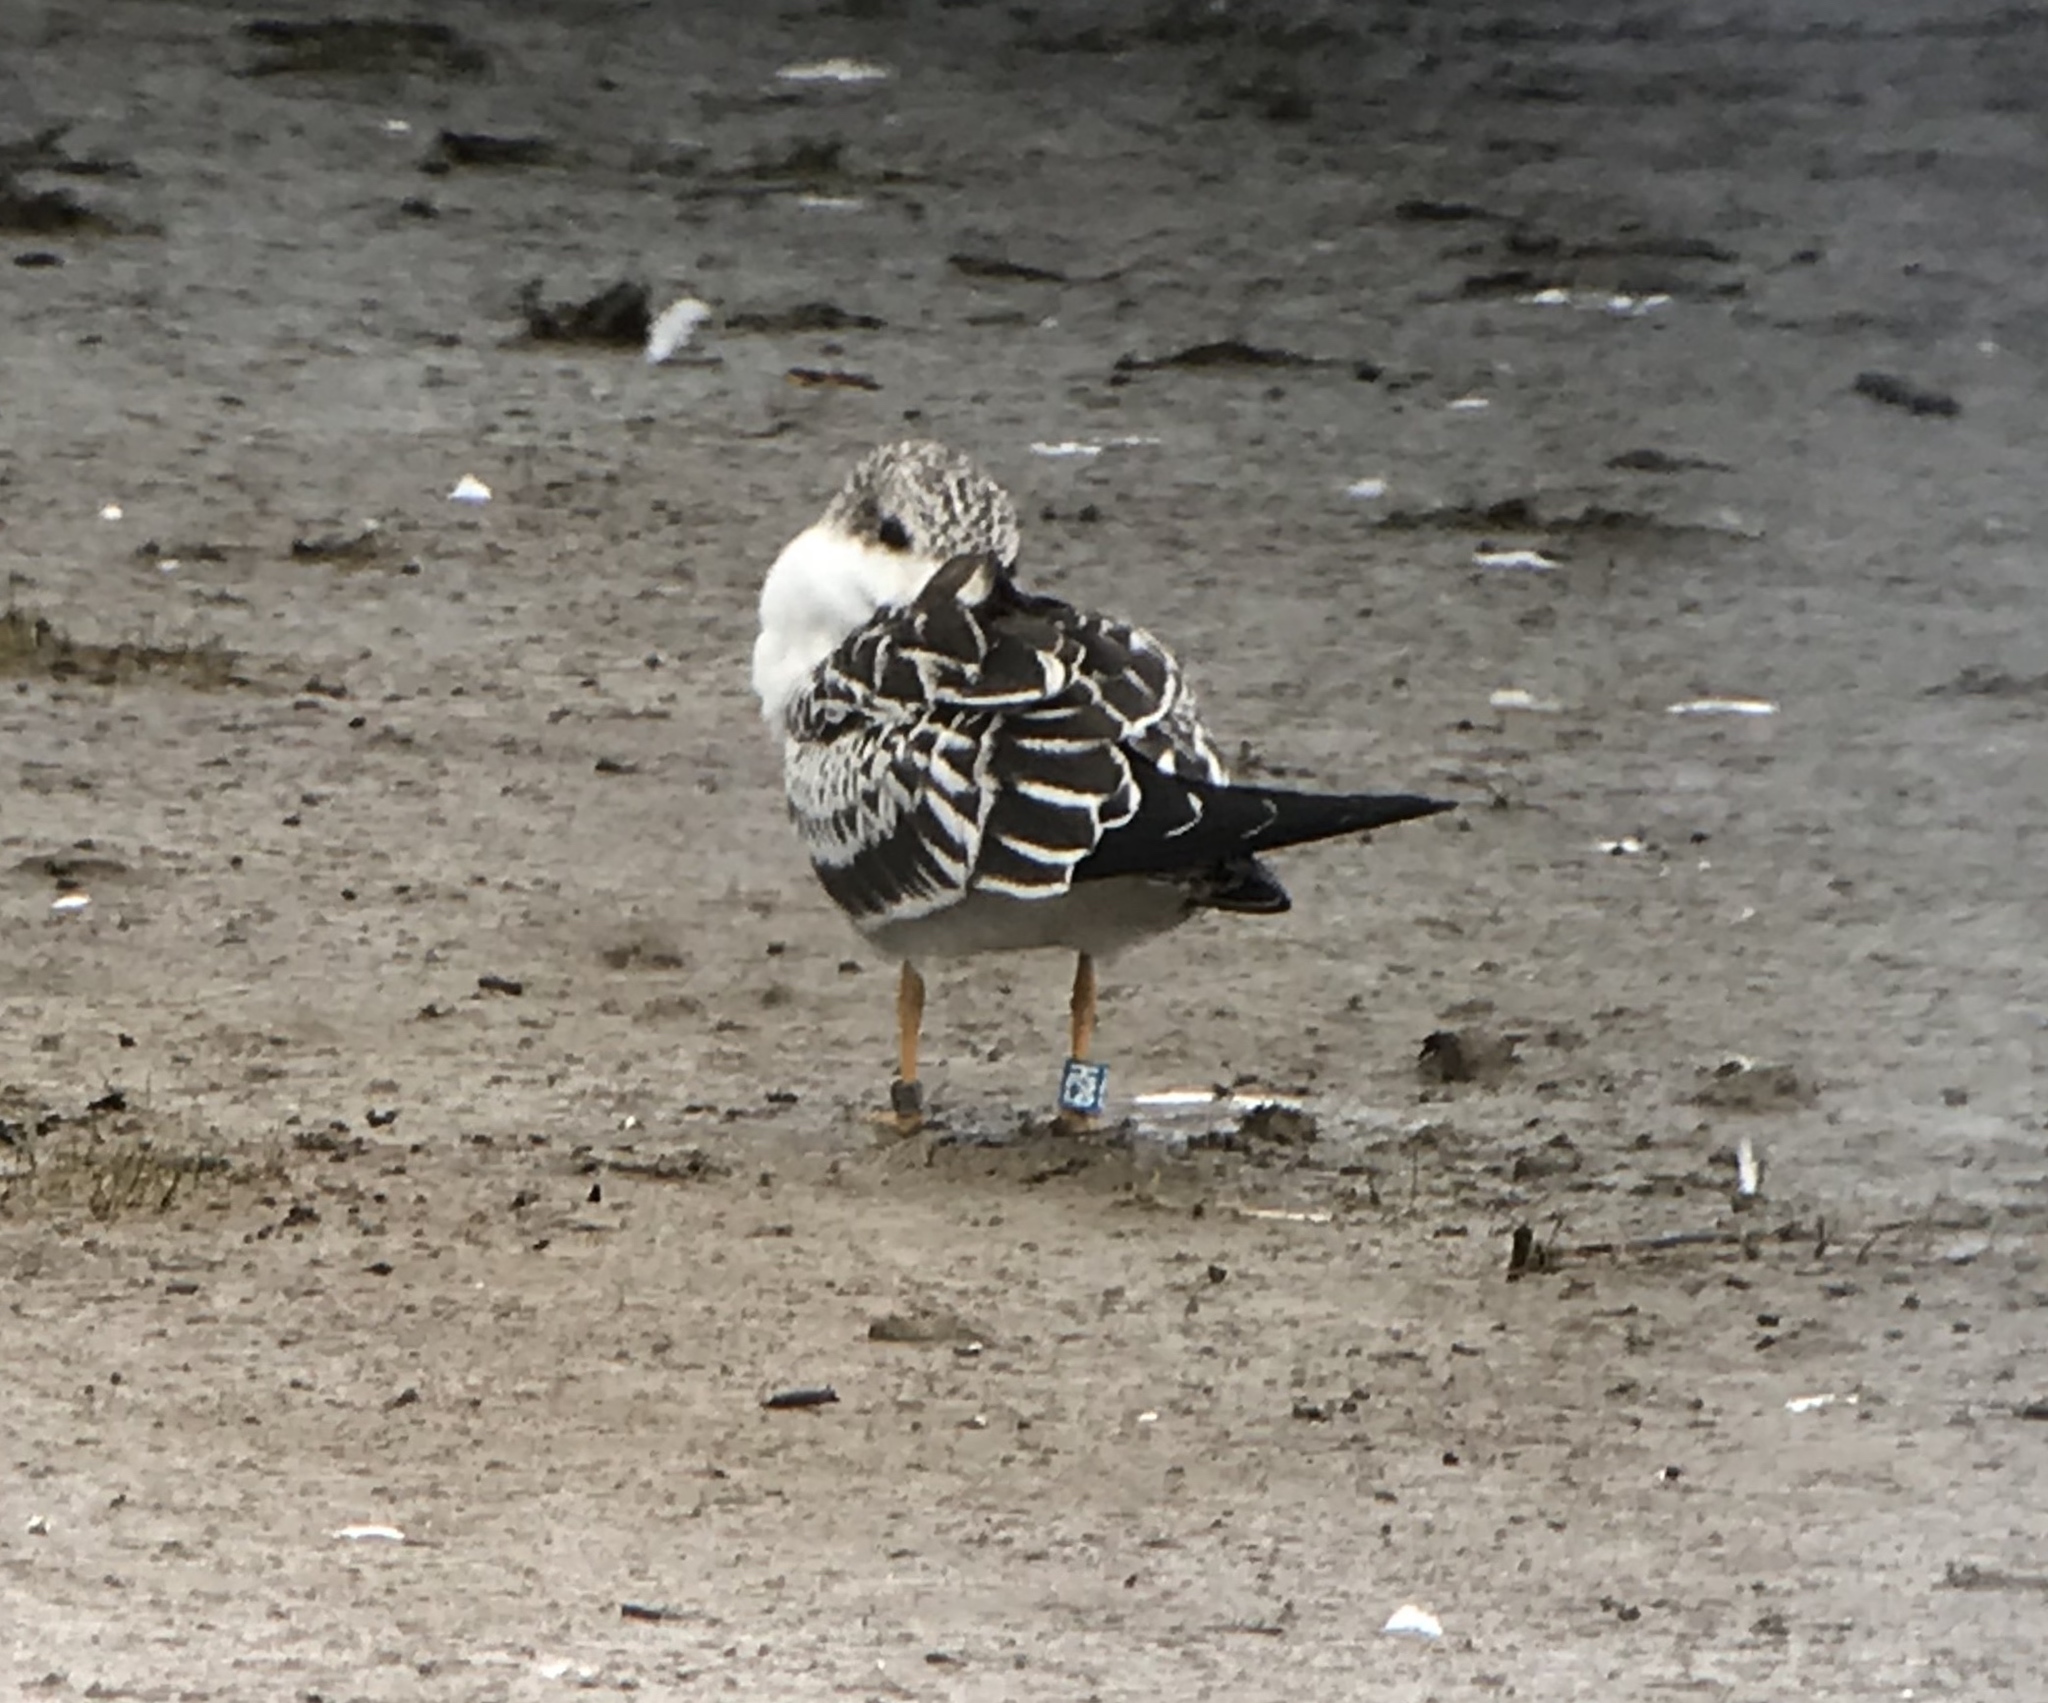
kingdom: Animalia
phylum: Chordata
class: Aves
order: Charadriiformes
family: Laridae
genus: Rynchops
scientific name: Rynchops niger
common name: Black skimmer
